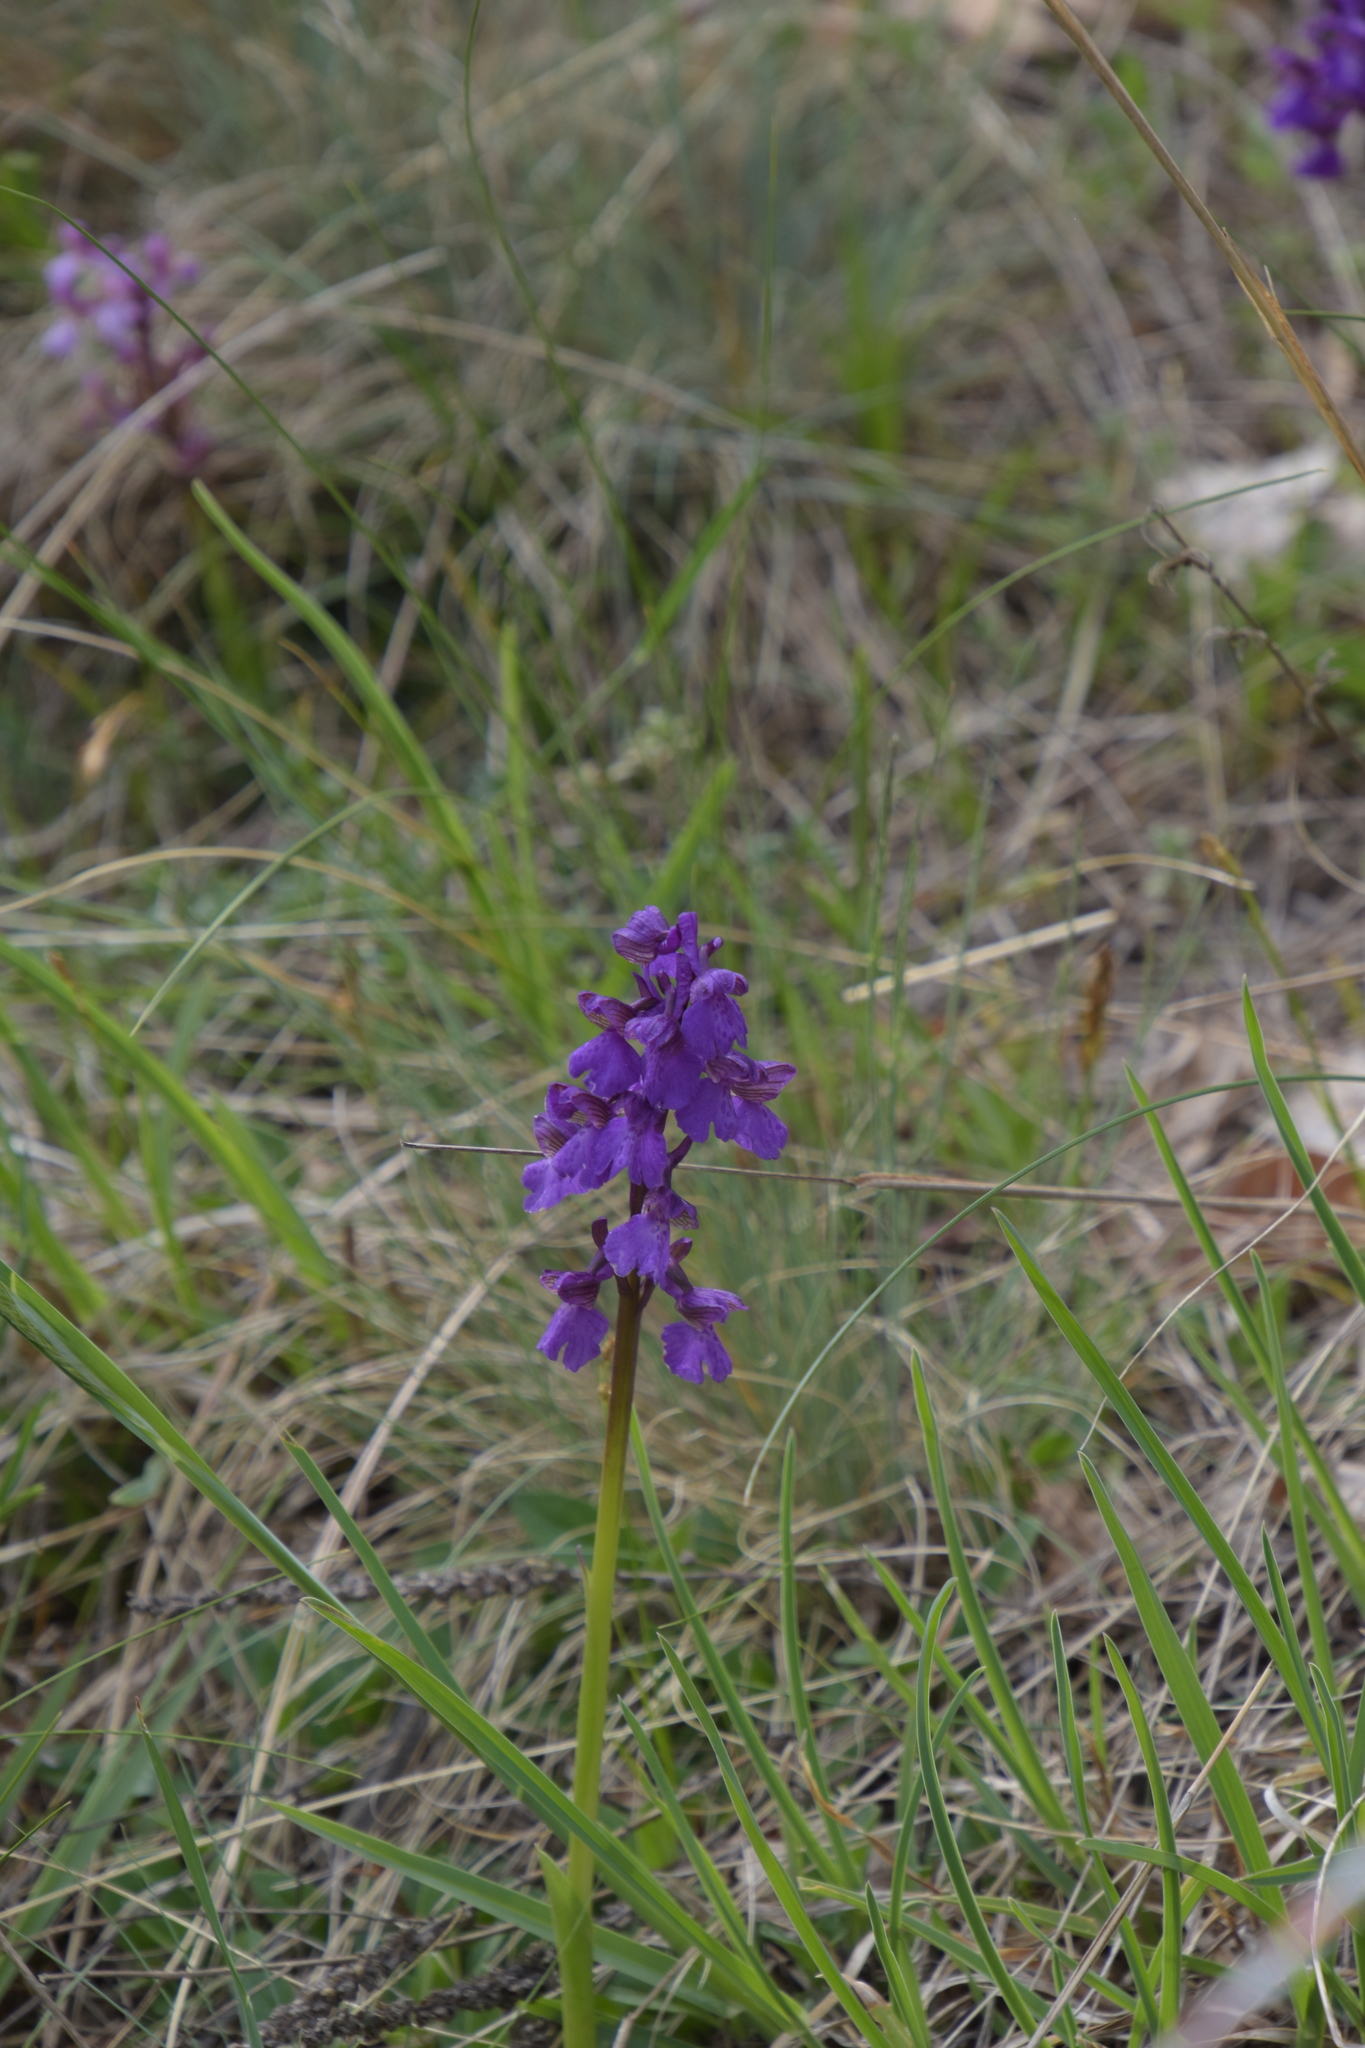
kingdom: Plantae
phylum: Tracheophyta
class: Liliopsida
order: Asparagales
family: Orchidaceae
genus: Anacamptis
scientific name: Anacamptis morio
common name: Green-winged orchid
